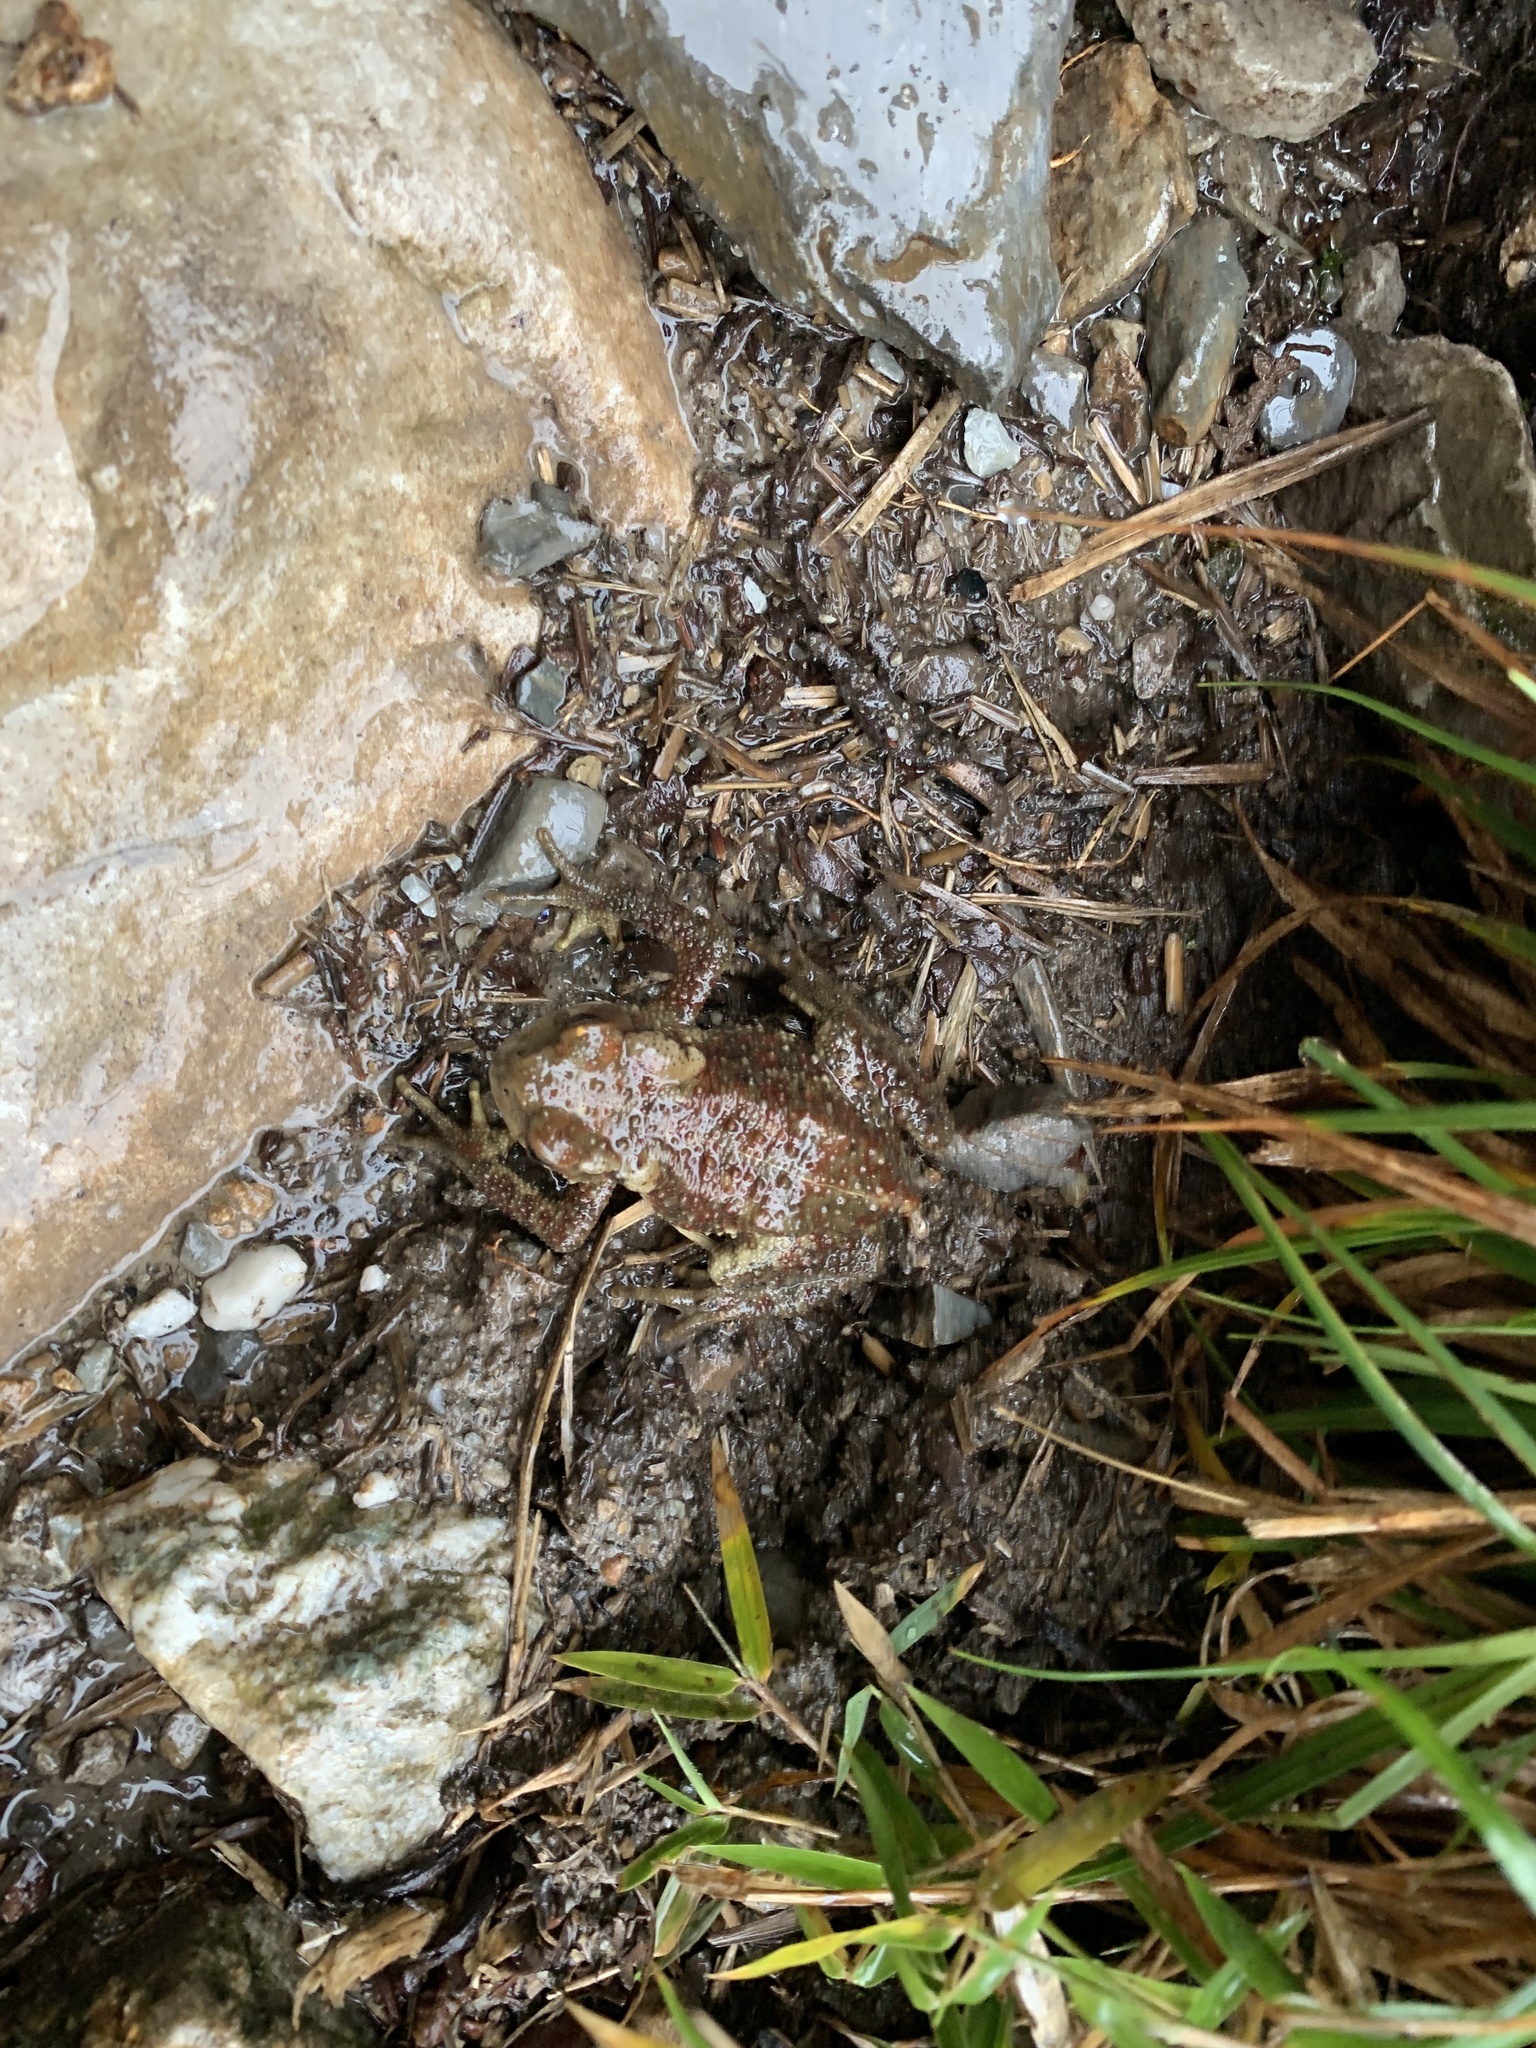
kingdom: Animalia
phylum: Chordata
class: Amphibia
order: Anura
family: Bufonidae
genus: Bufo
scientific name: Bufo bankorensis
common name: Bankor toad
